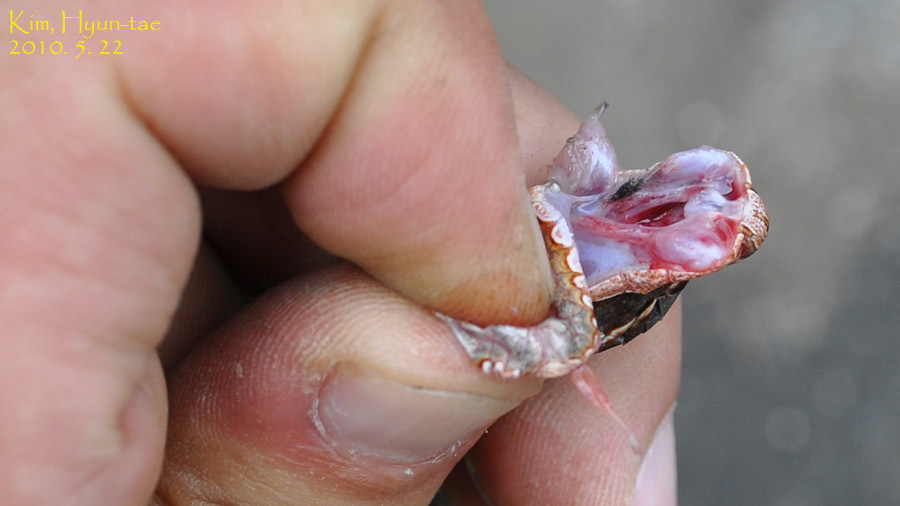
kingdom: Animalia
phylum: Chordata
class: Squamata
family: Viperidae
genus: Gloydius
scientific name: Gloydius ussuriensis
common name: Ussuri mamushi
